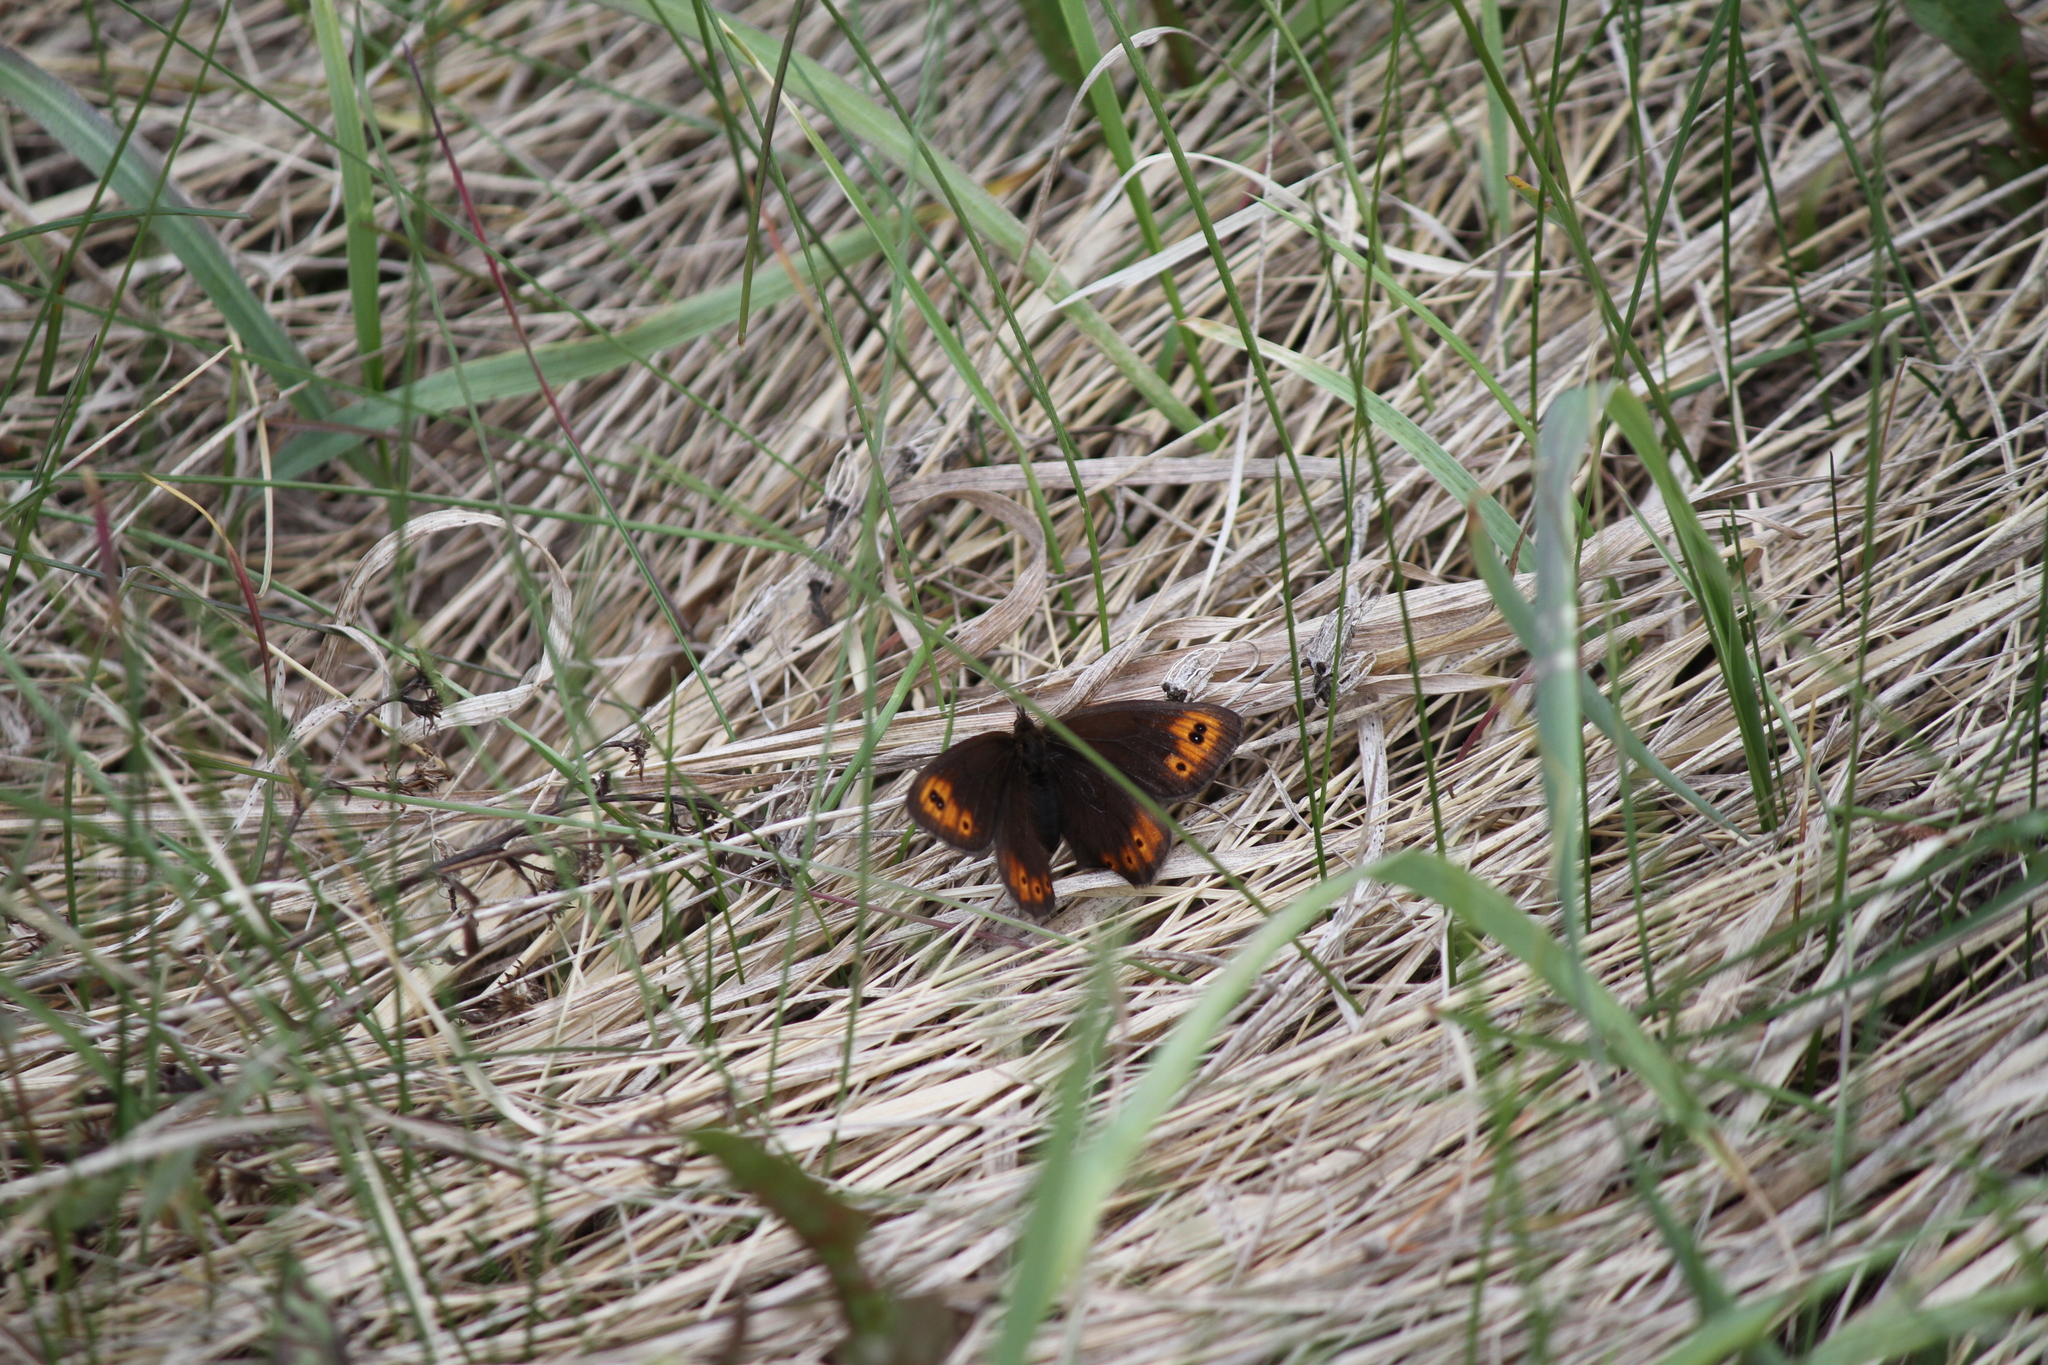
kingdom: Animalia
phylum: Arthropoda
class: Insecta
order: Lepidoptera
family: Nymphalidae
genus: Erebia
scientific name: Erebia epipsodea
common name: Common alpine
